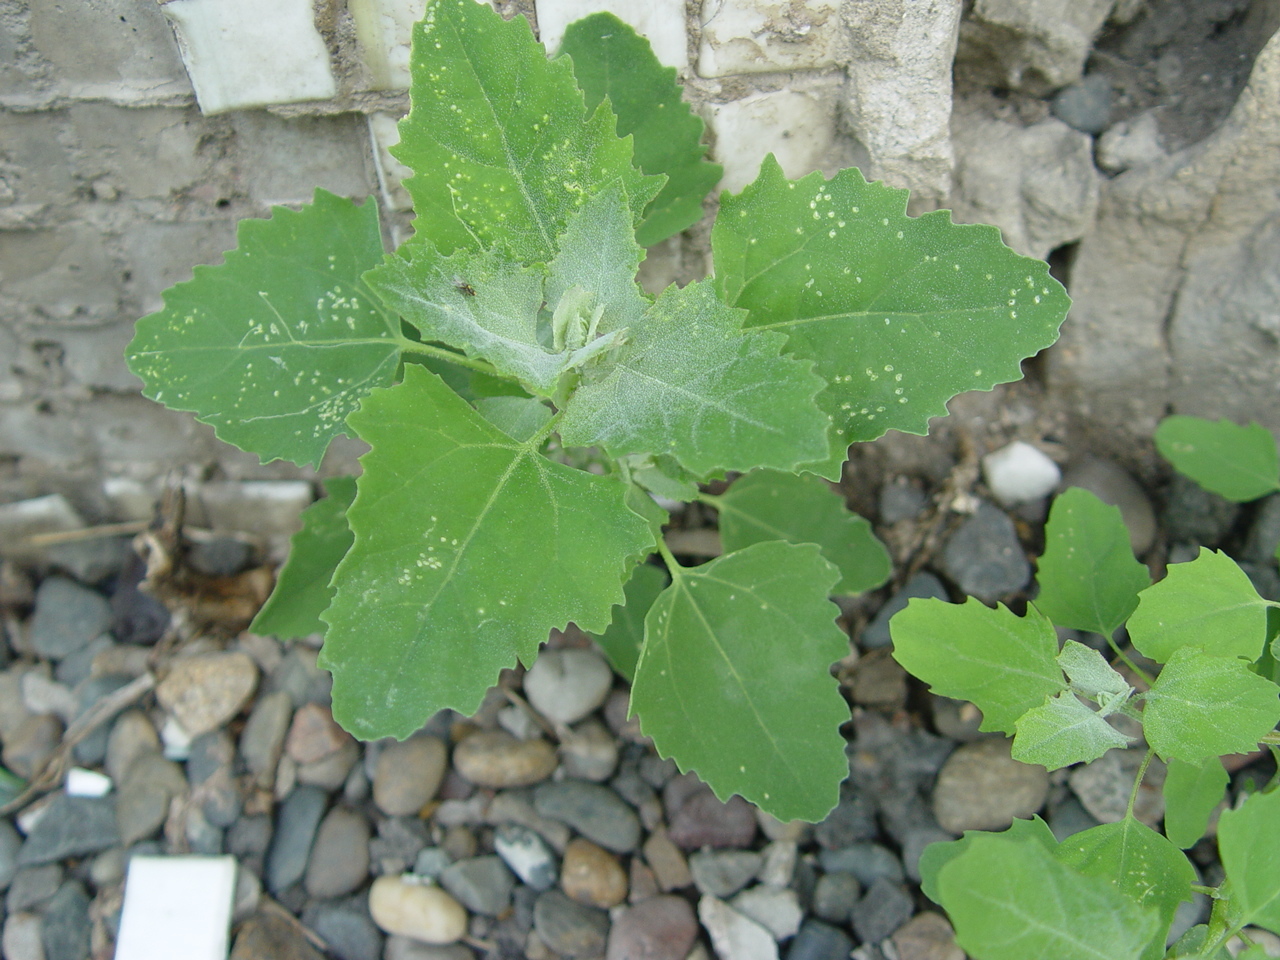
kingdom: Plantae
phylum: Tracheophyta
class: Magnoliopsida
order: Caryophyllales
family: Amaranthaceae
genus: Chenopodium
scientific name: Chenopodium album
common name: Fat-hen
